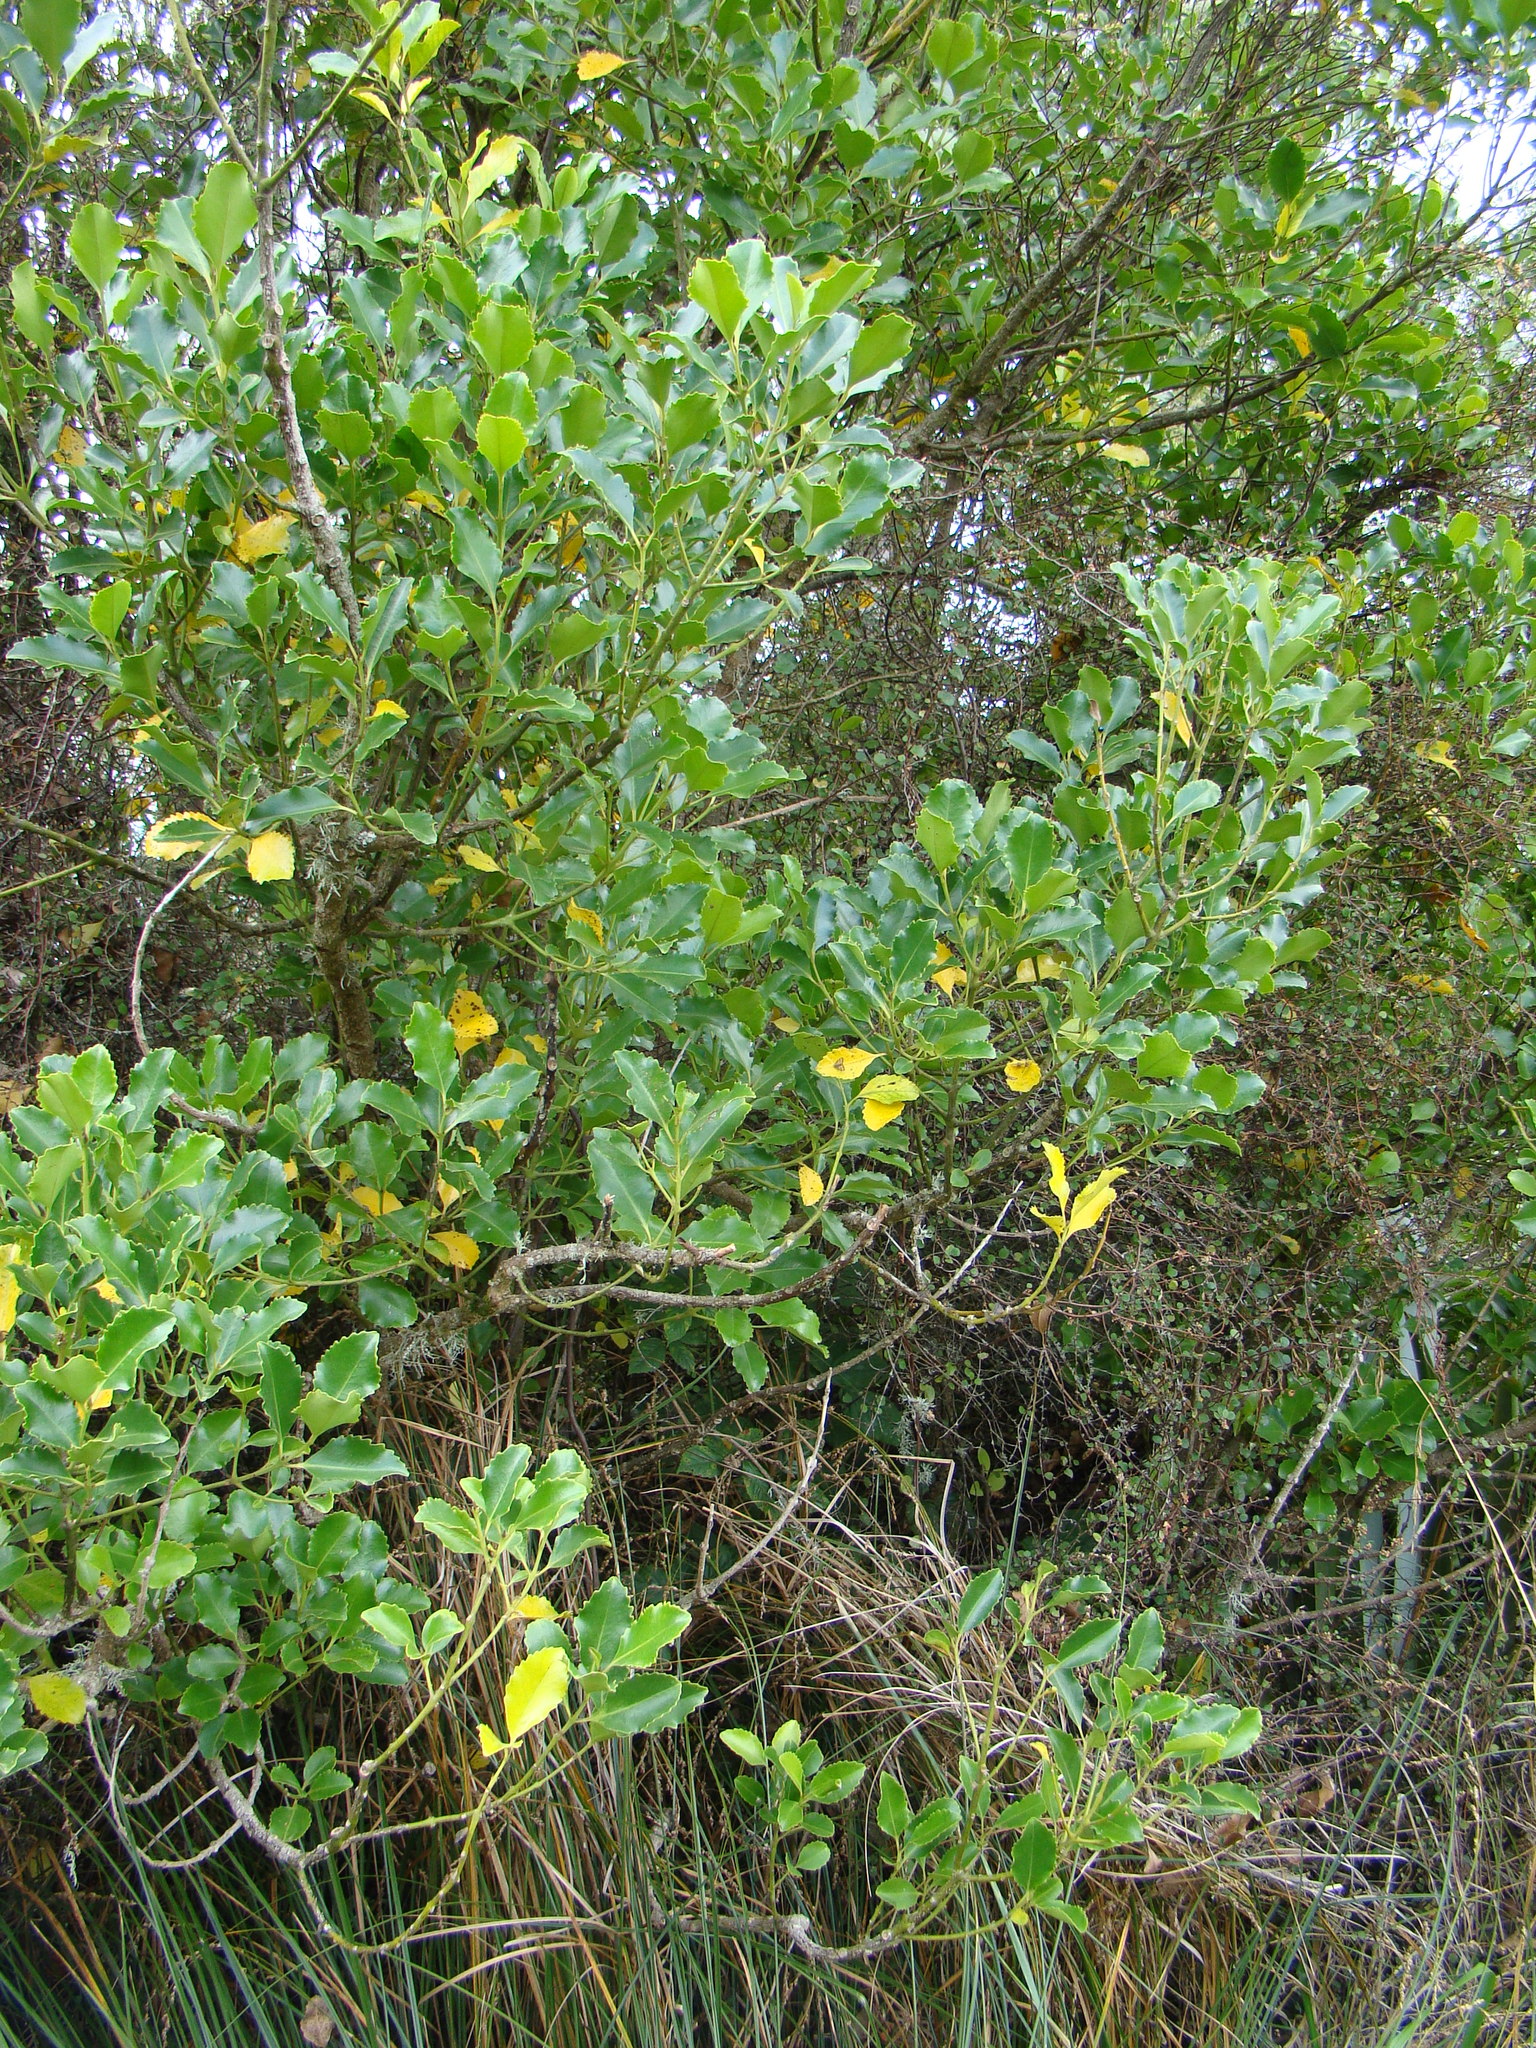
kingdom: Plantae
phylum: Tracheophyta
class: Magnoliopsida
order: Laurales
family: Atherospermataceae
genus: Laurelia
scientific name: Laurelia novae-zelandiae
